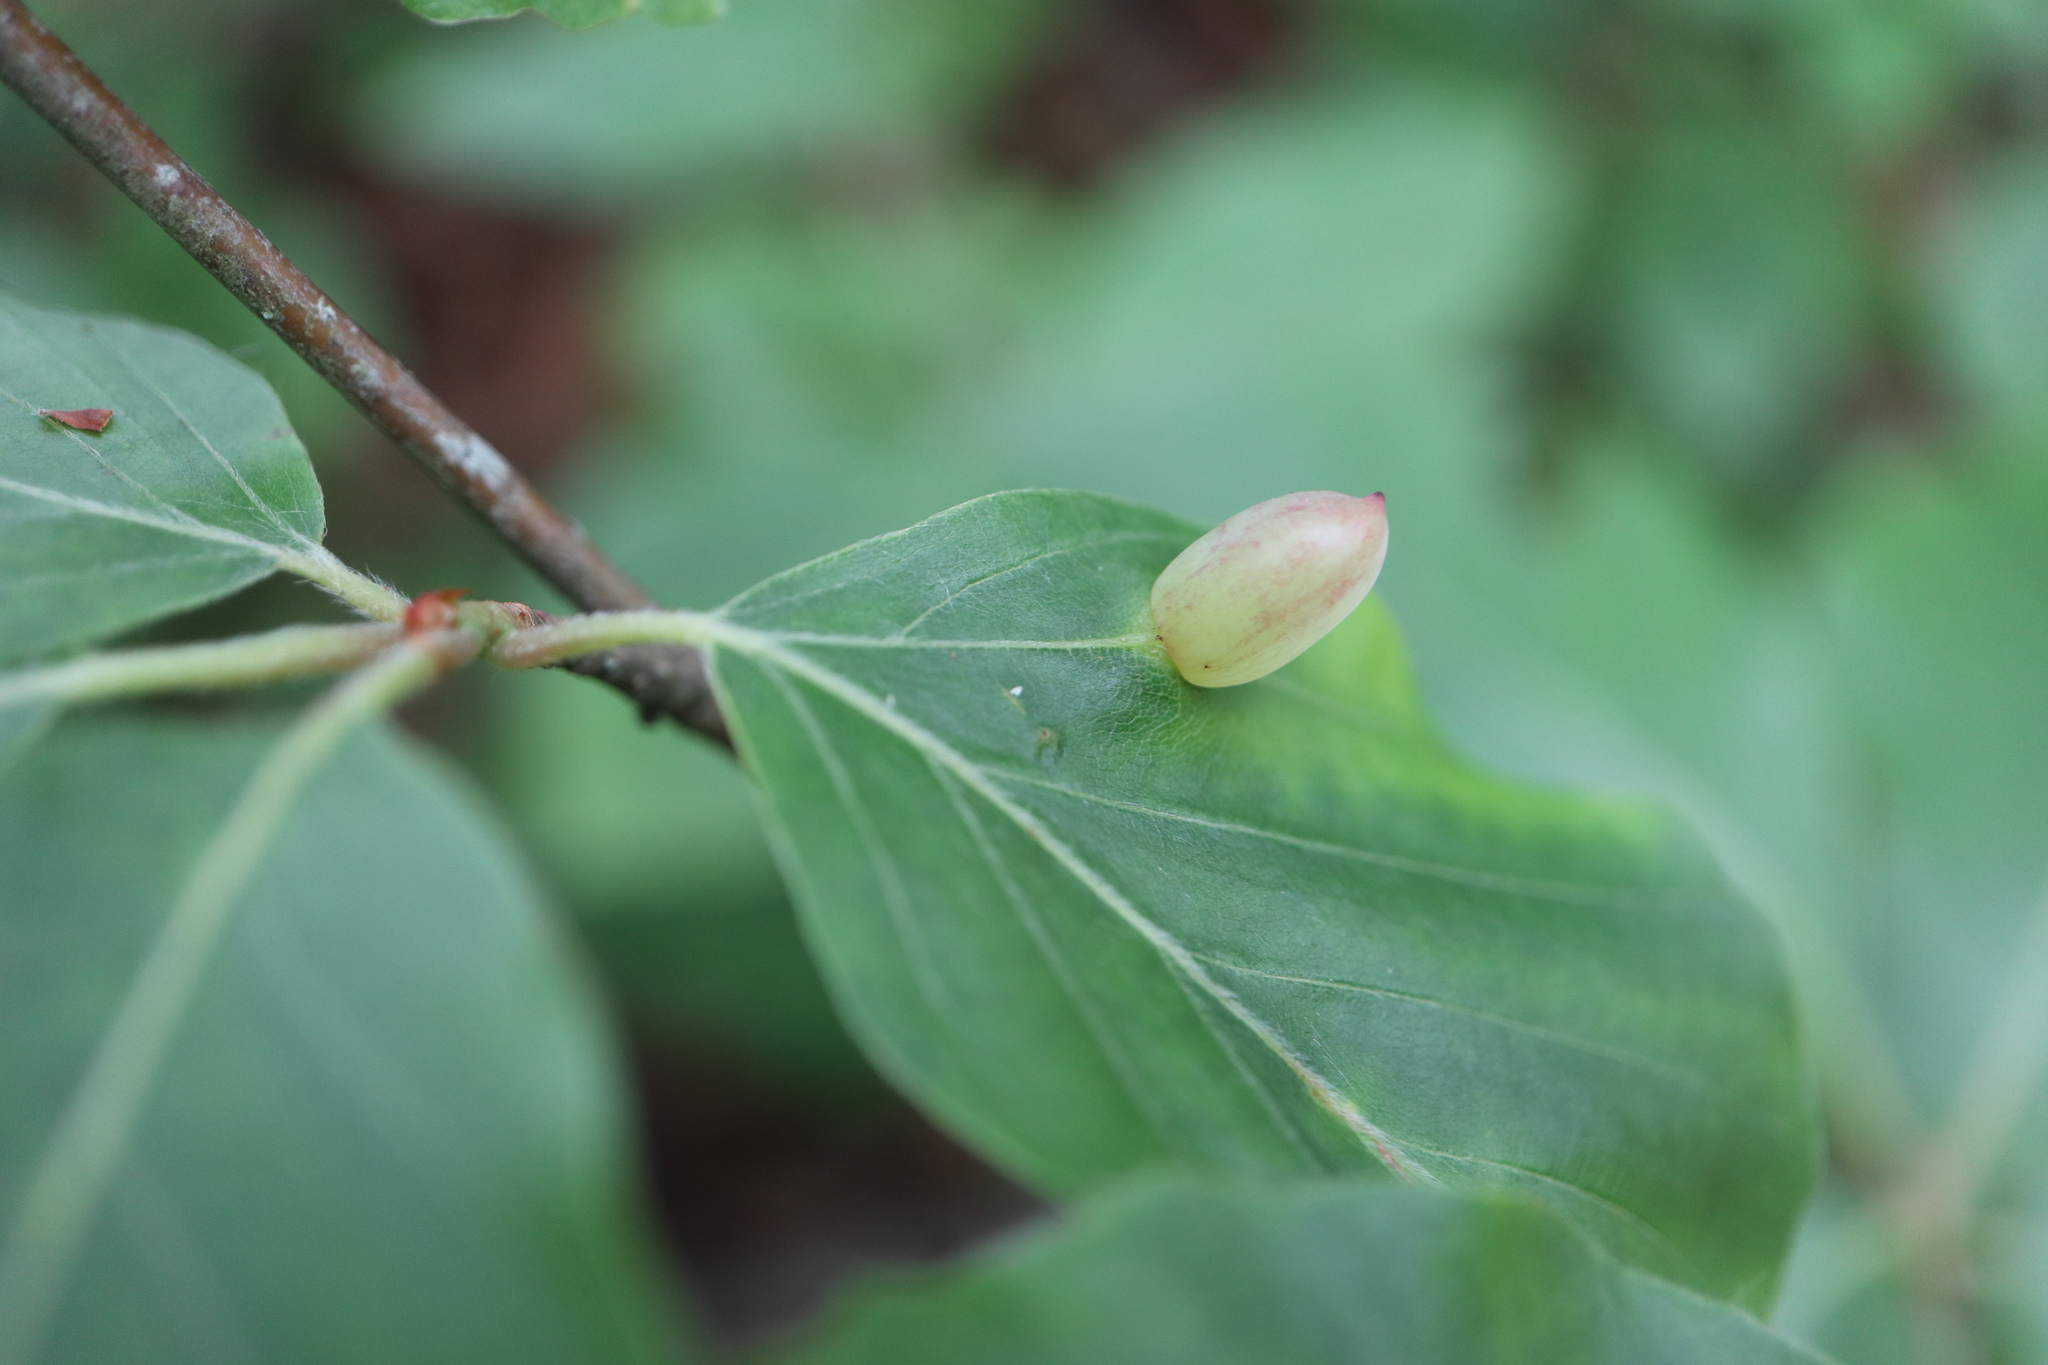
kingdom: Animalia
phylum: Arthropoda
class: Insecta
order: Diptera
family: Cecidomyiidae
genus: Mikiola
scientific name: Mikiola fagi
